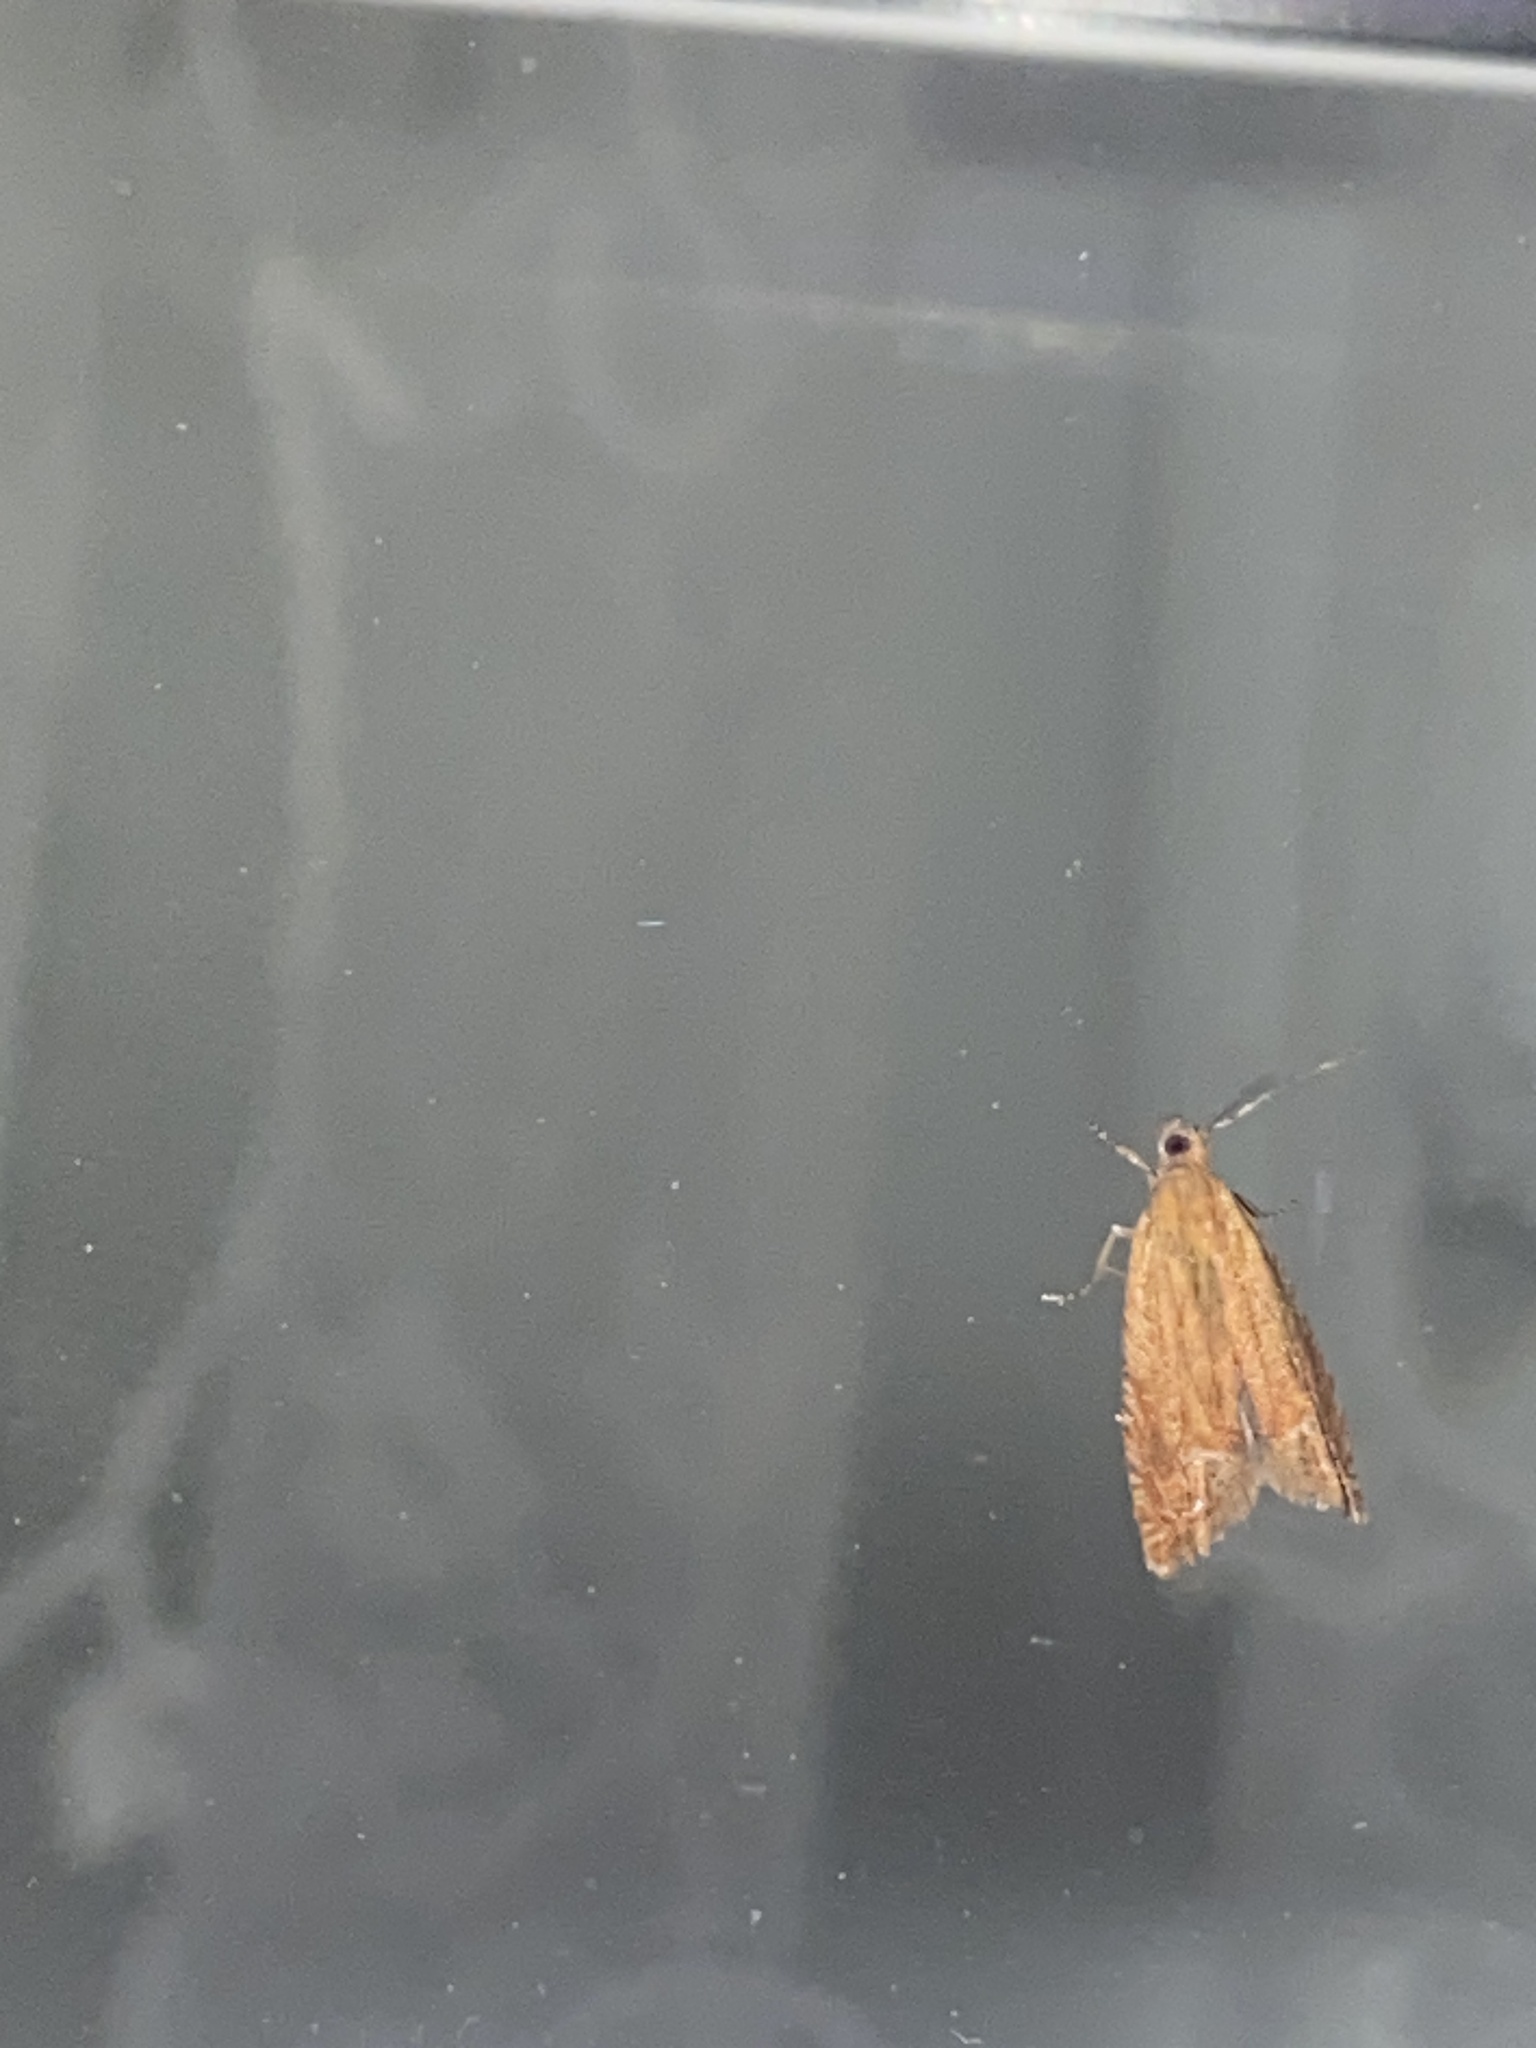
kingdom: Animalia
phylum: Arthropoda
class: Insecta
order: Lepidoptera
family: Tortricidae
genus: Lathronympha
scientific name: Lathronympha strigana
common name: Red piercer
